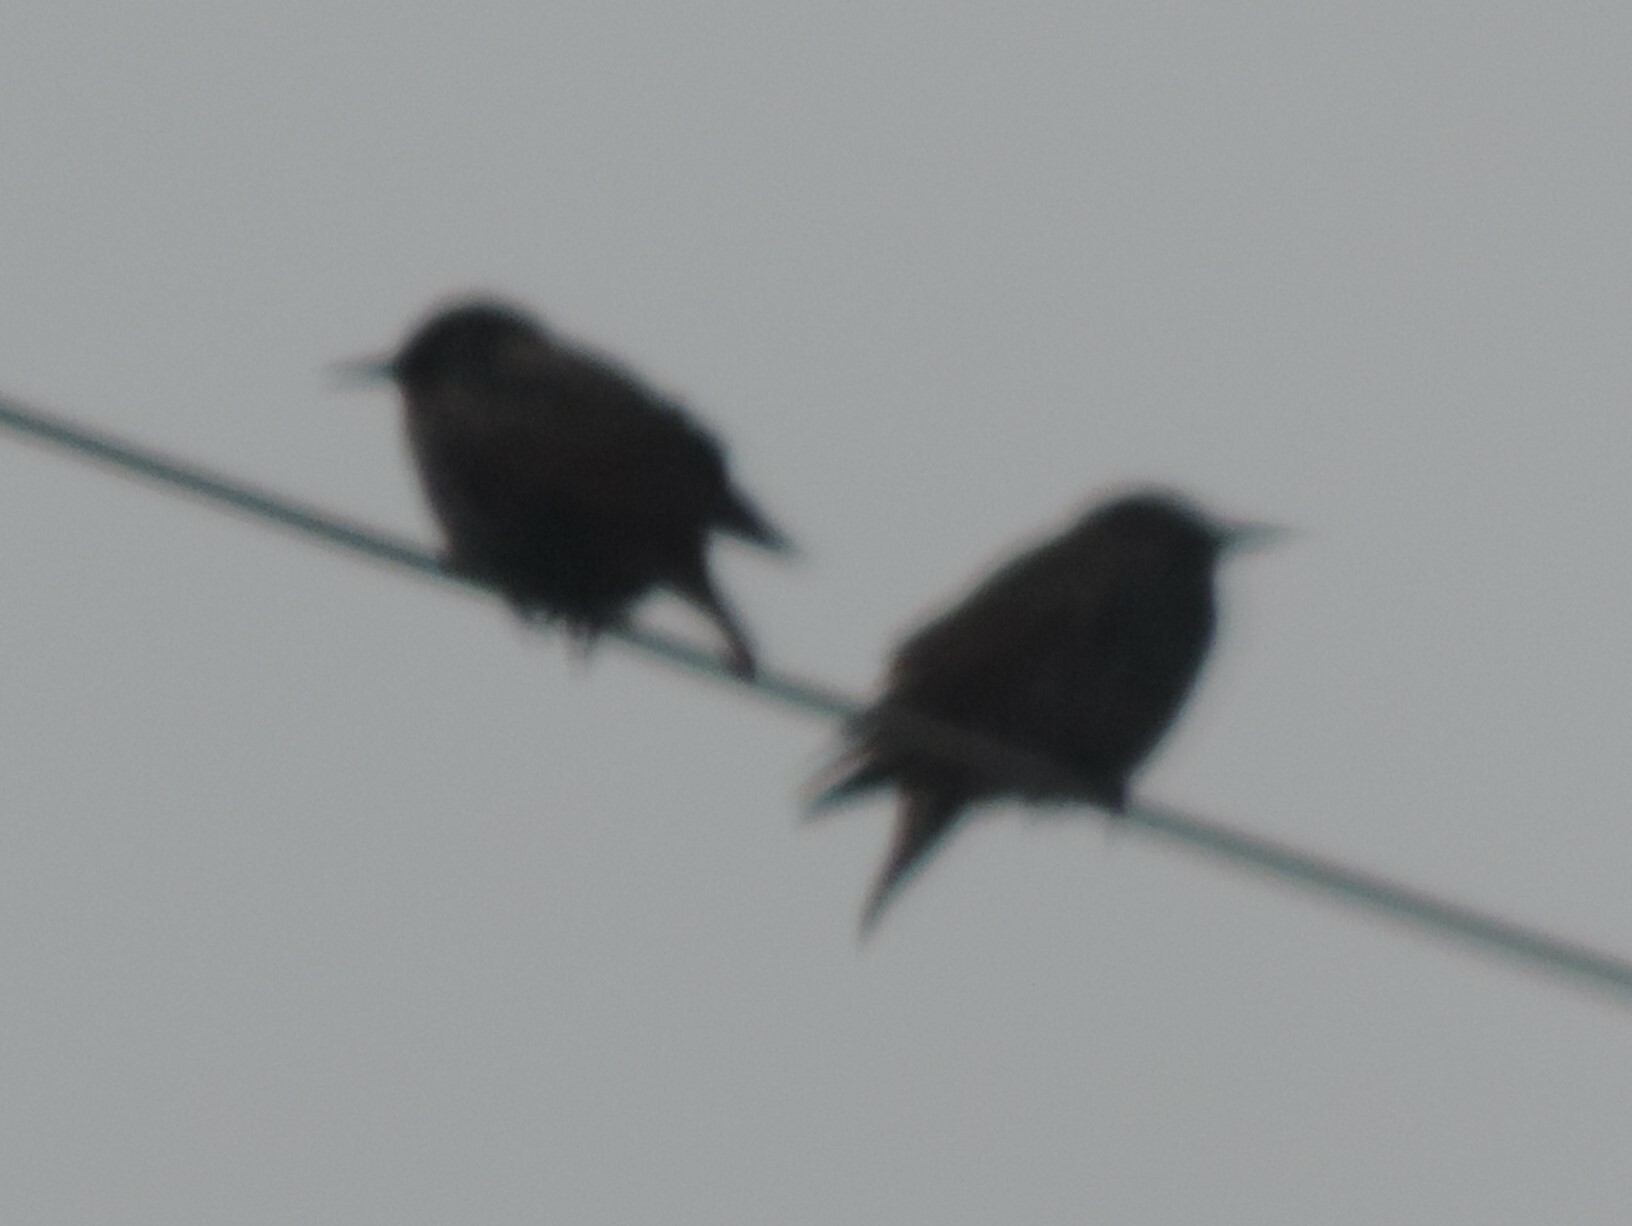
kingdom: Animalia
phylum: Chordata
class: Aves
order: Passeriformes
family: Sturnidae
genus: Sturnus
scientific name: Sturnus vulgaris
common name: Common starling
